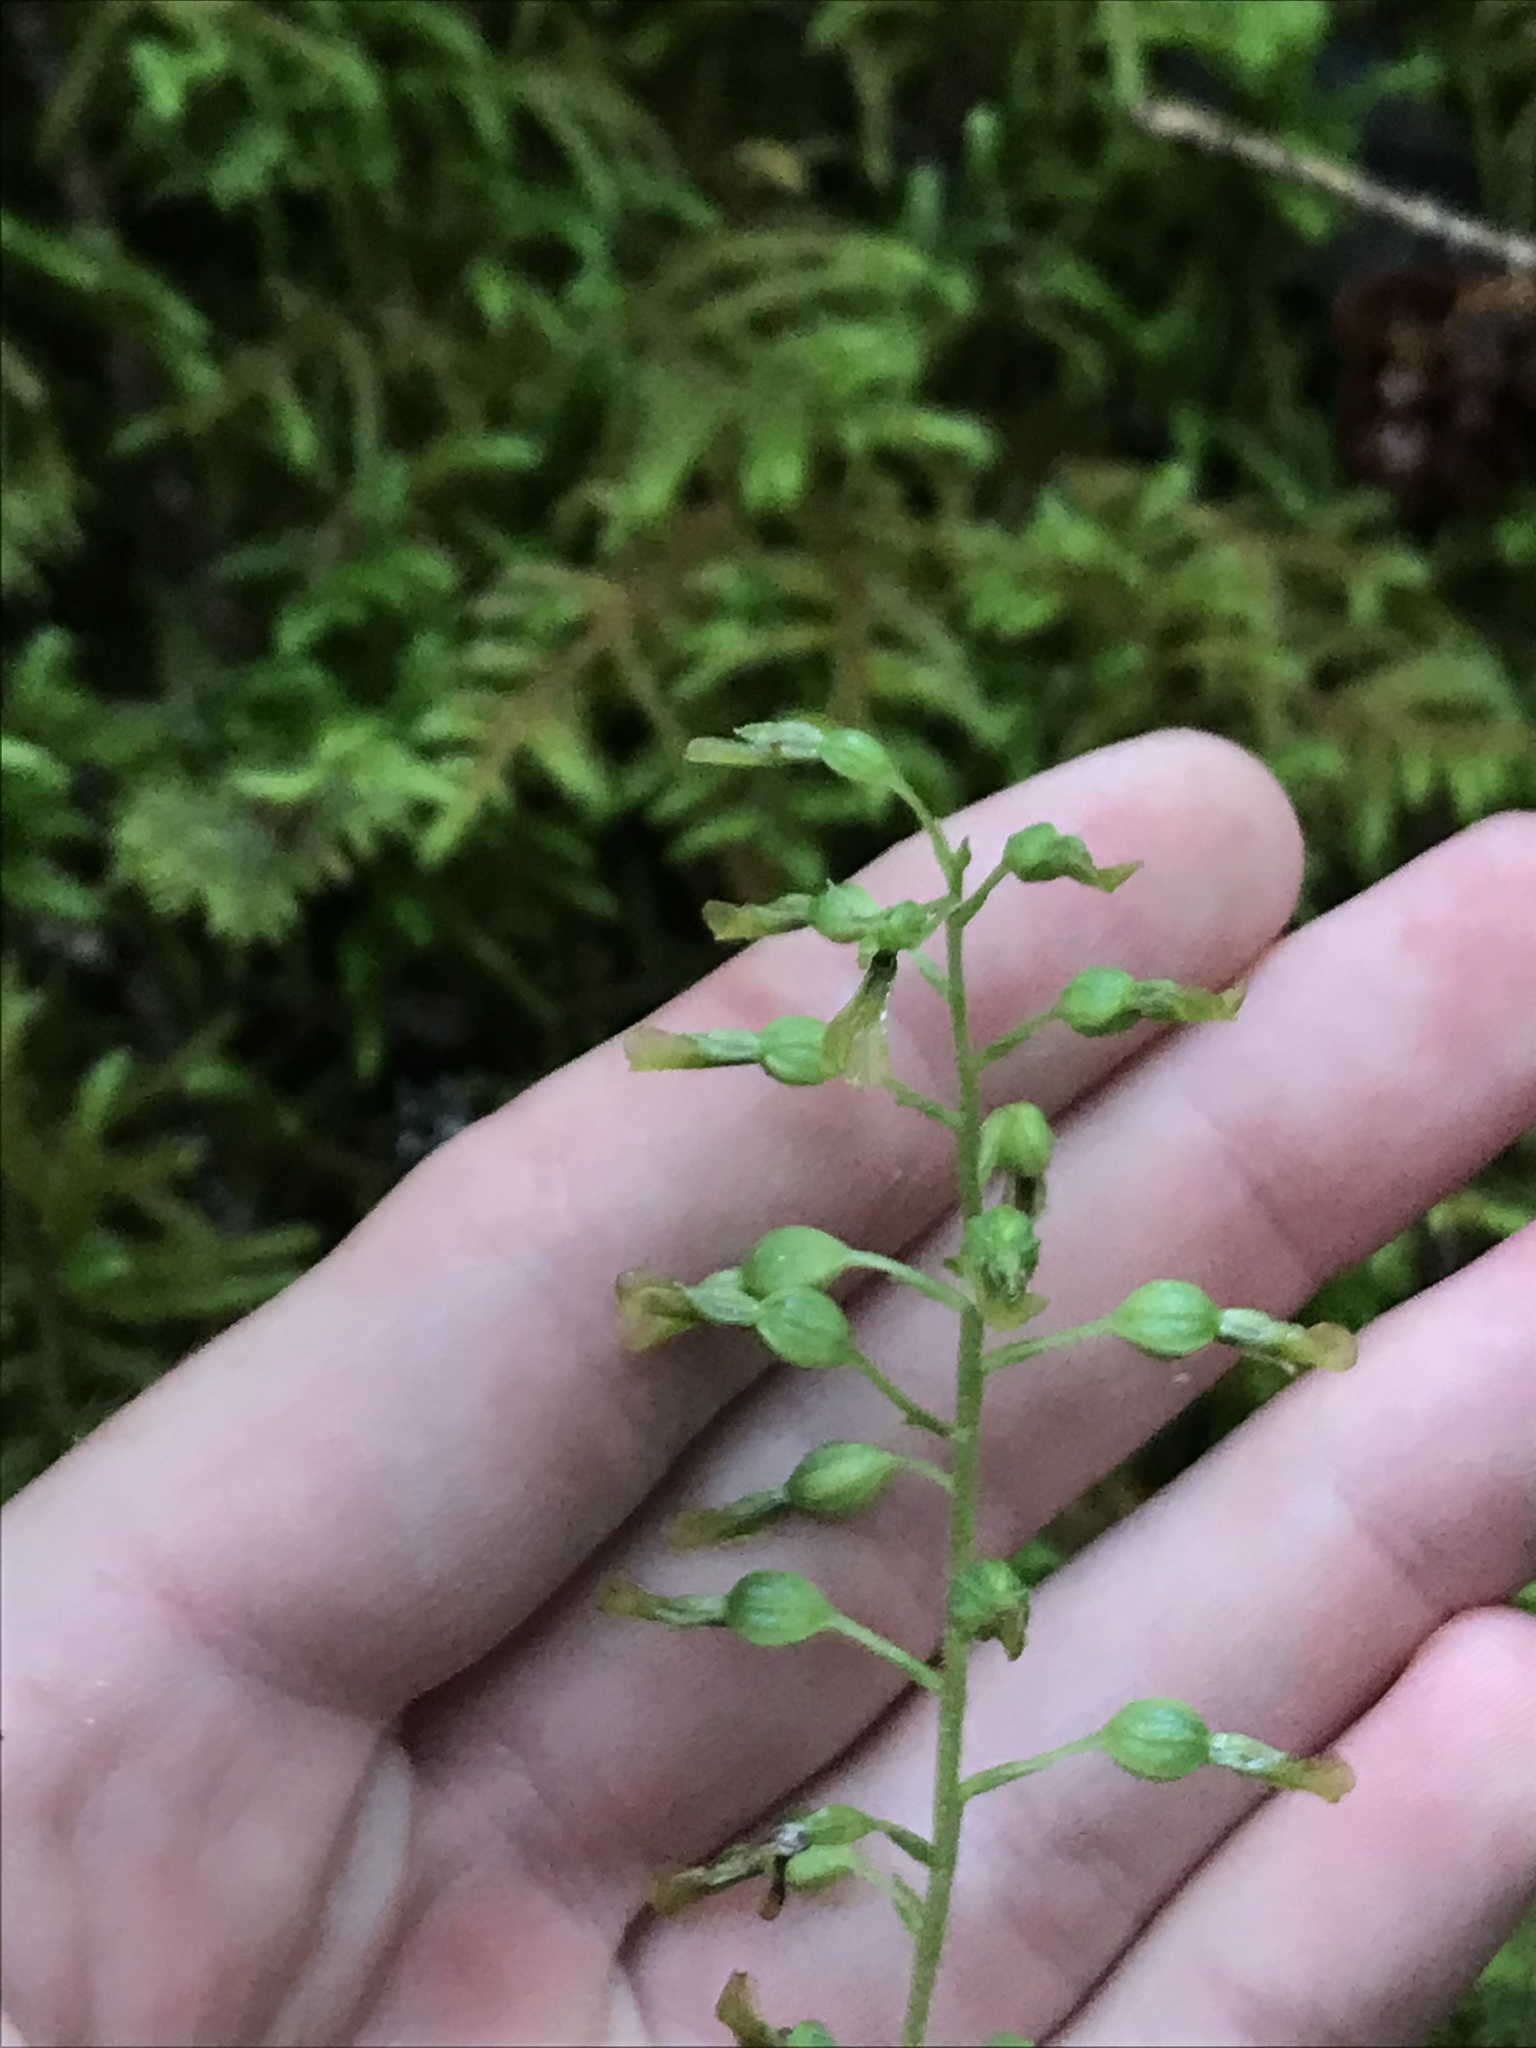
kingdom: Plantae
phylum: Tracheophyta
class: Liliopsida
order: Asparagales
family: Orchidaceae
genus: Neottia
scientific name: Neottia banksiana
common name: Northwestern twayblade
